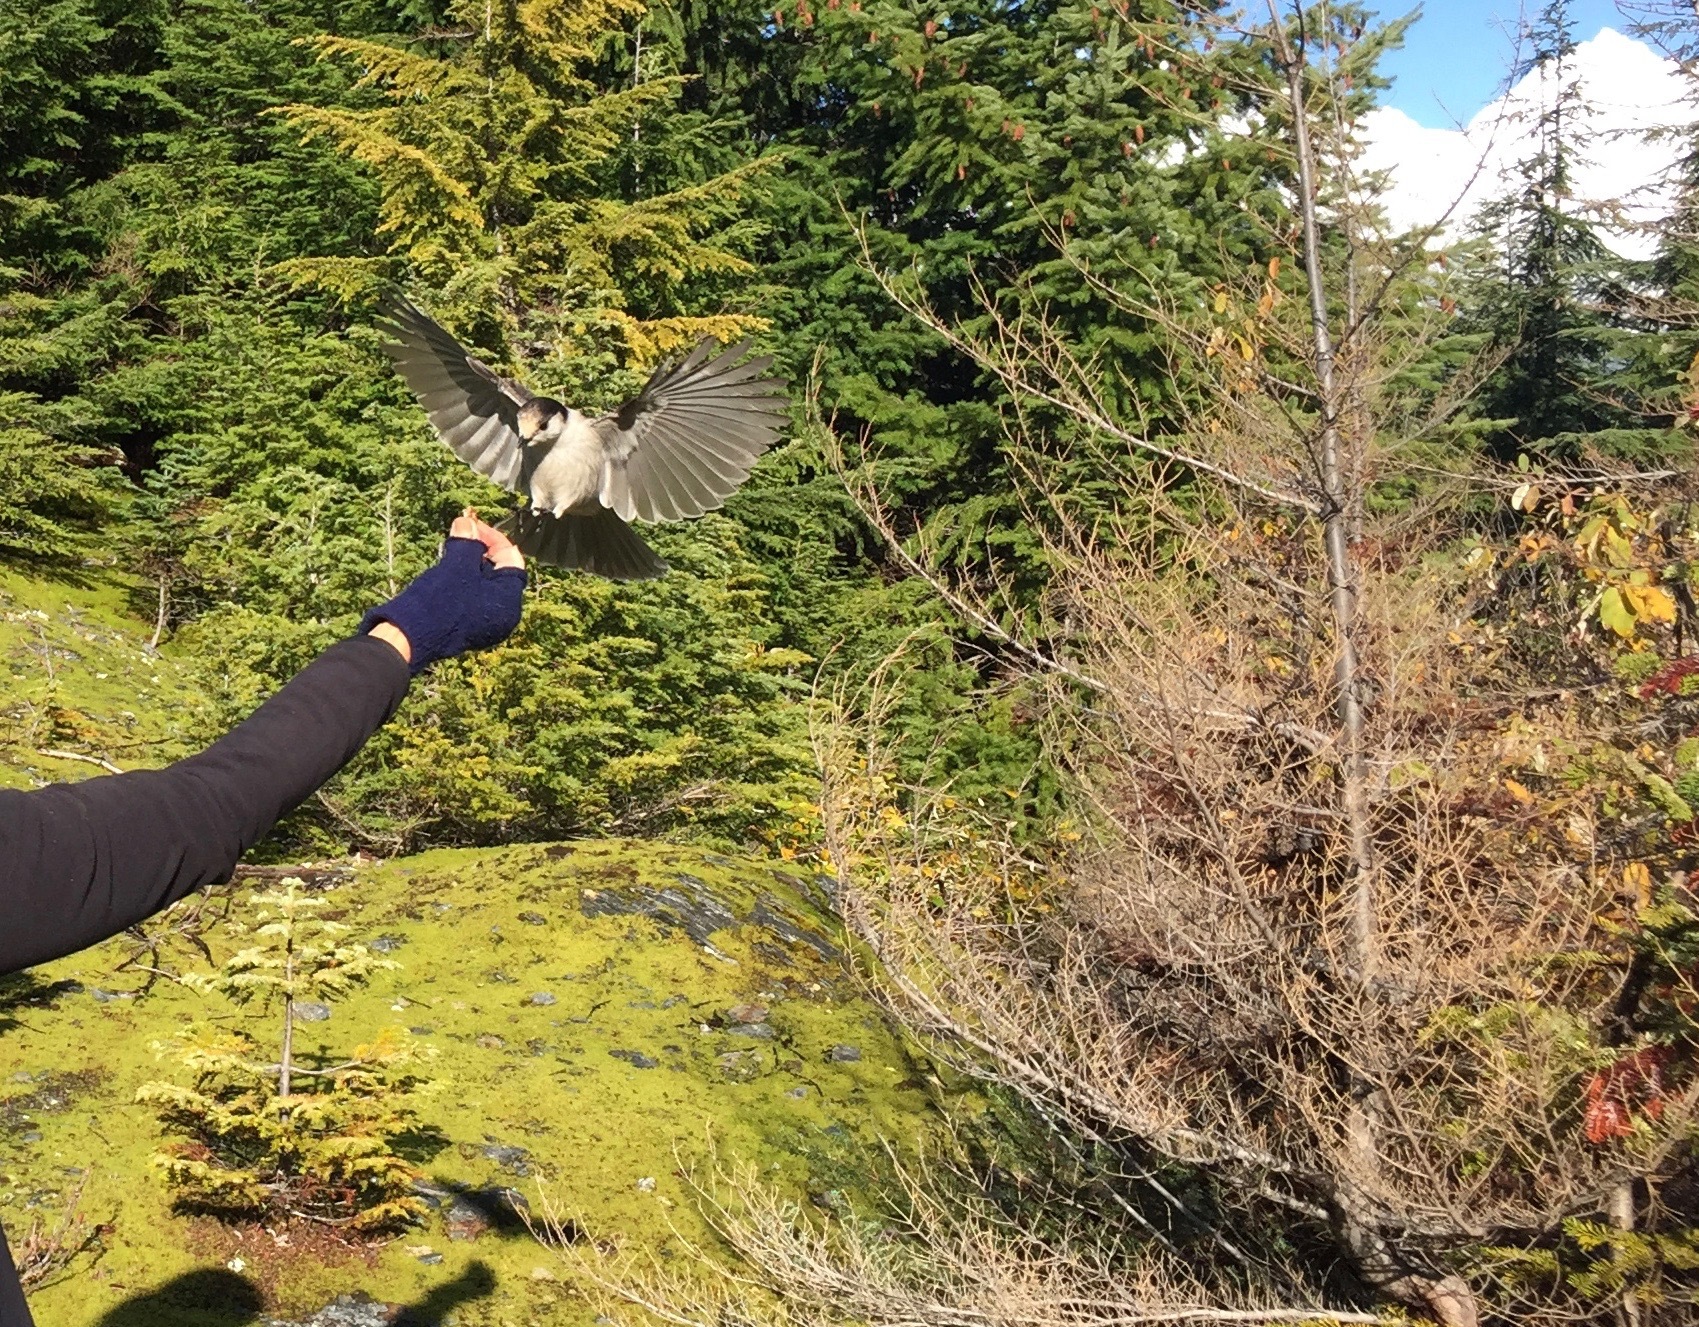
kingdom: Animalia
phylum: Chordata
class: Aves
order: Passeriformes
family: Corvidae
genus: Perisoreus
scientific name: Perisoreus canadensis
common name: Gray jay
